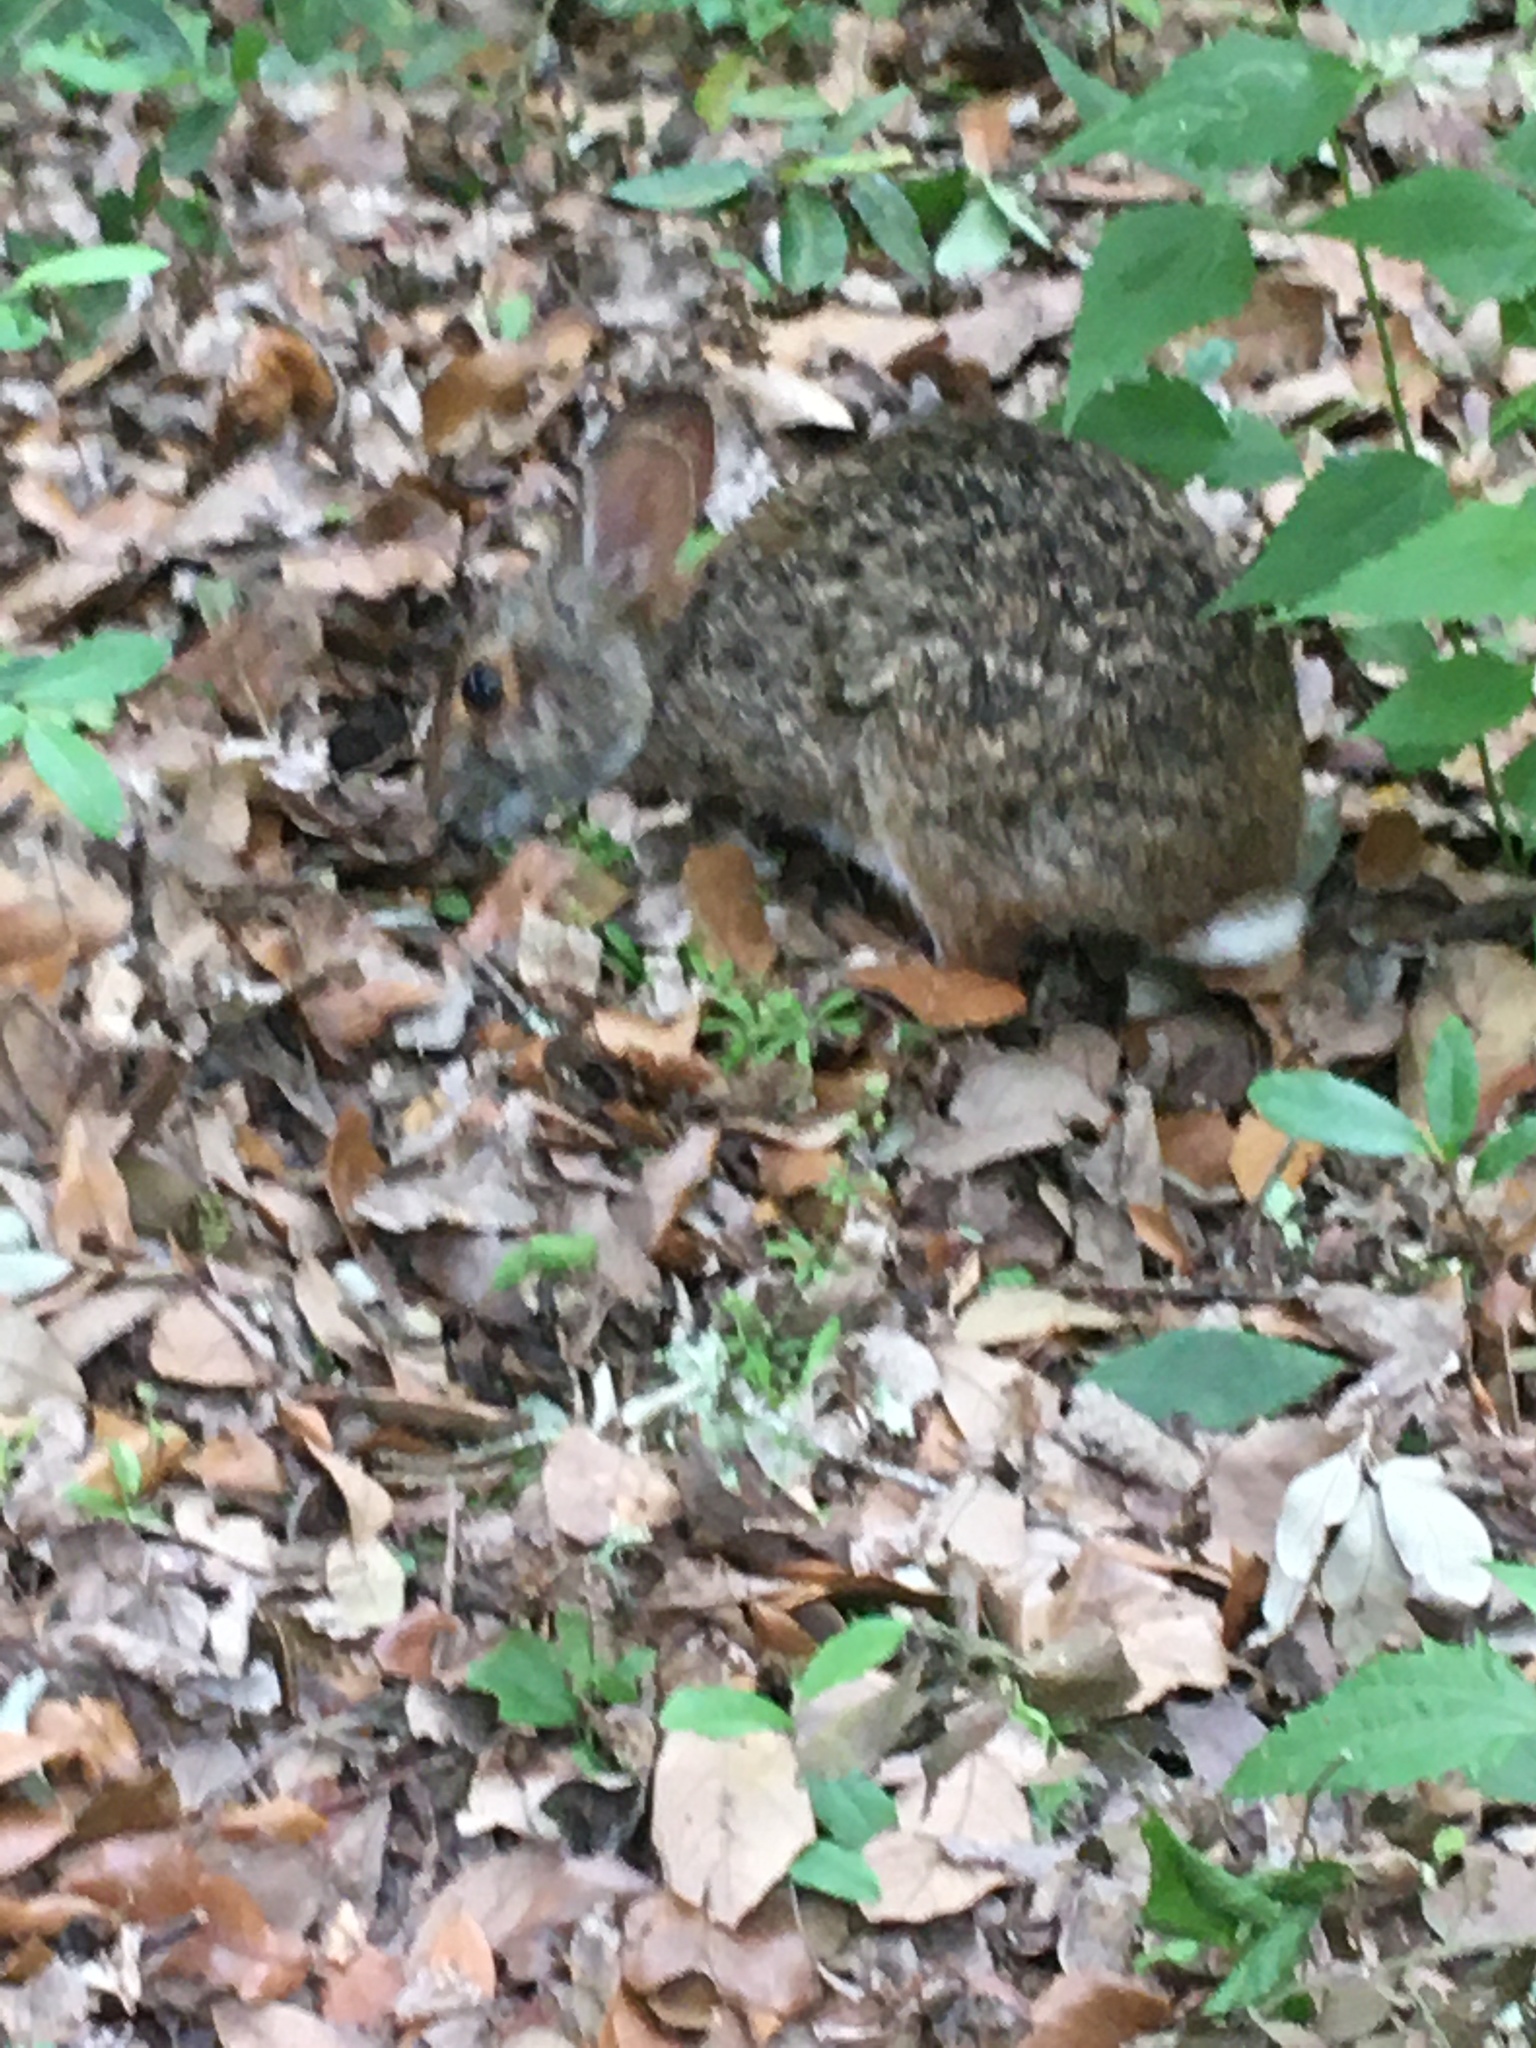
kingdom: Animalia
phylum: Chordata
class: Mammalia
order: Lagomorpha
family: Leporidae
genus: Sylvilagus
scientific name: Sylvilagus aquaticus
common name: Swamp rabbit
